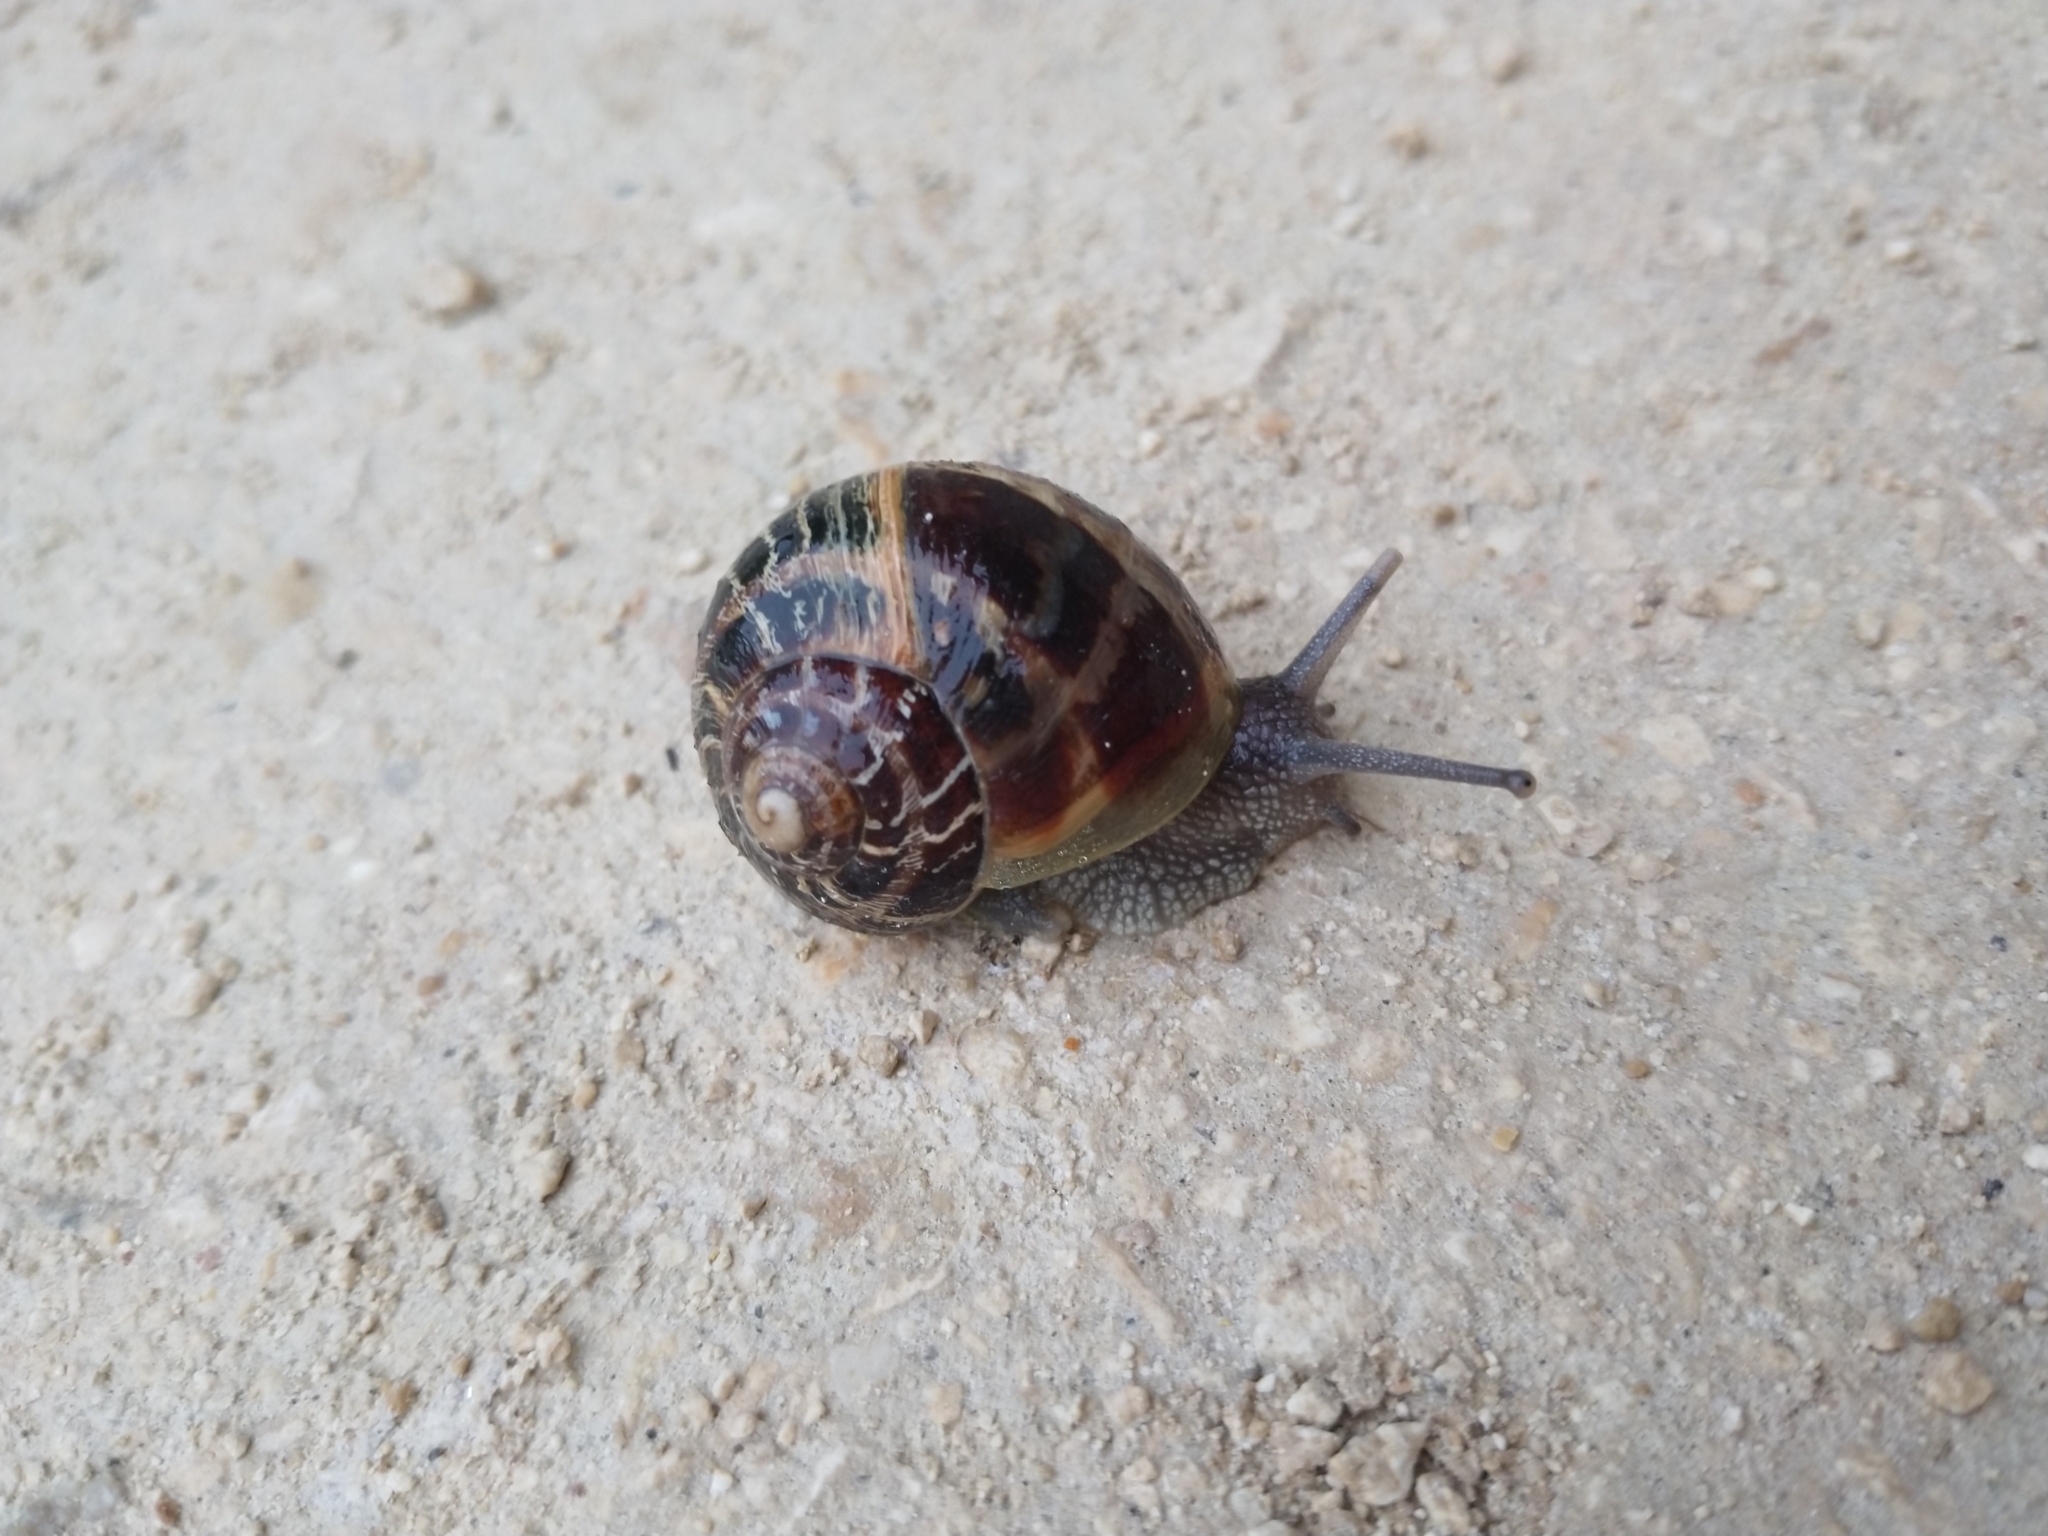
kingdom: Animalia
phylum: Mollusca
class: Gastropoda
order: Stylommatophora
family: Helicidae
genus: Cornu
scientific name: Cornu aspersum
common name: Brown garden snail
